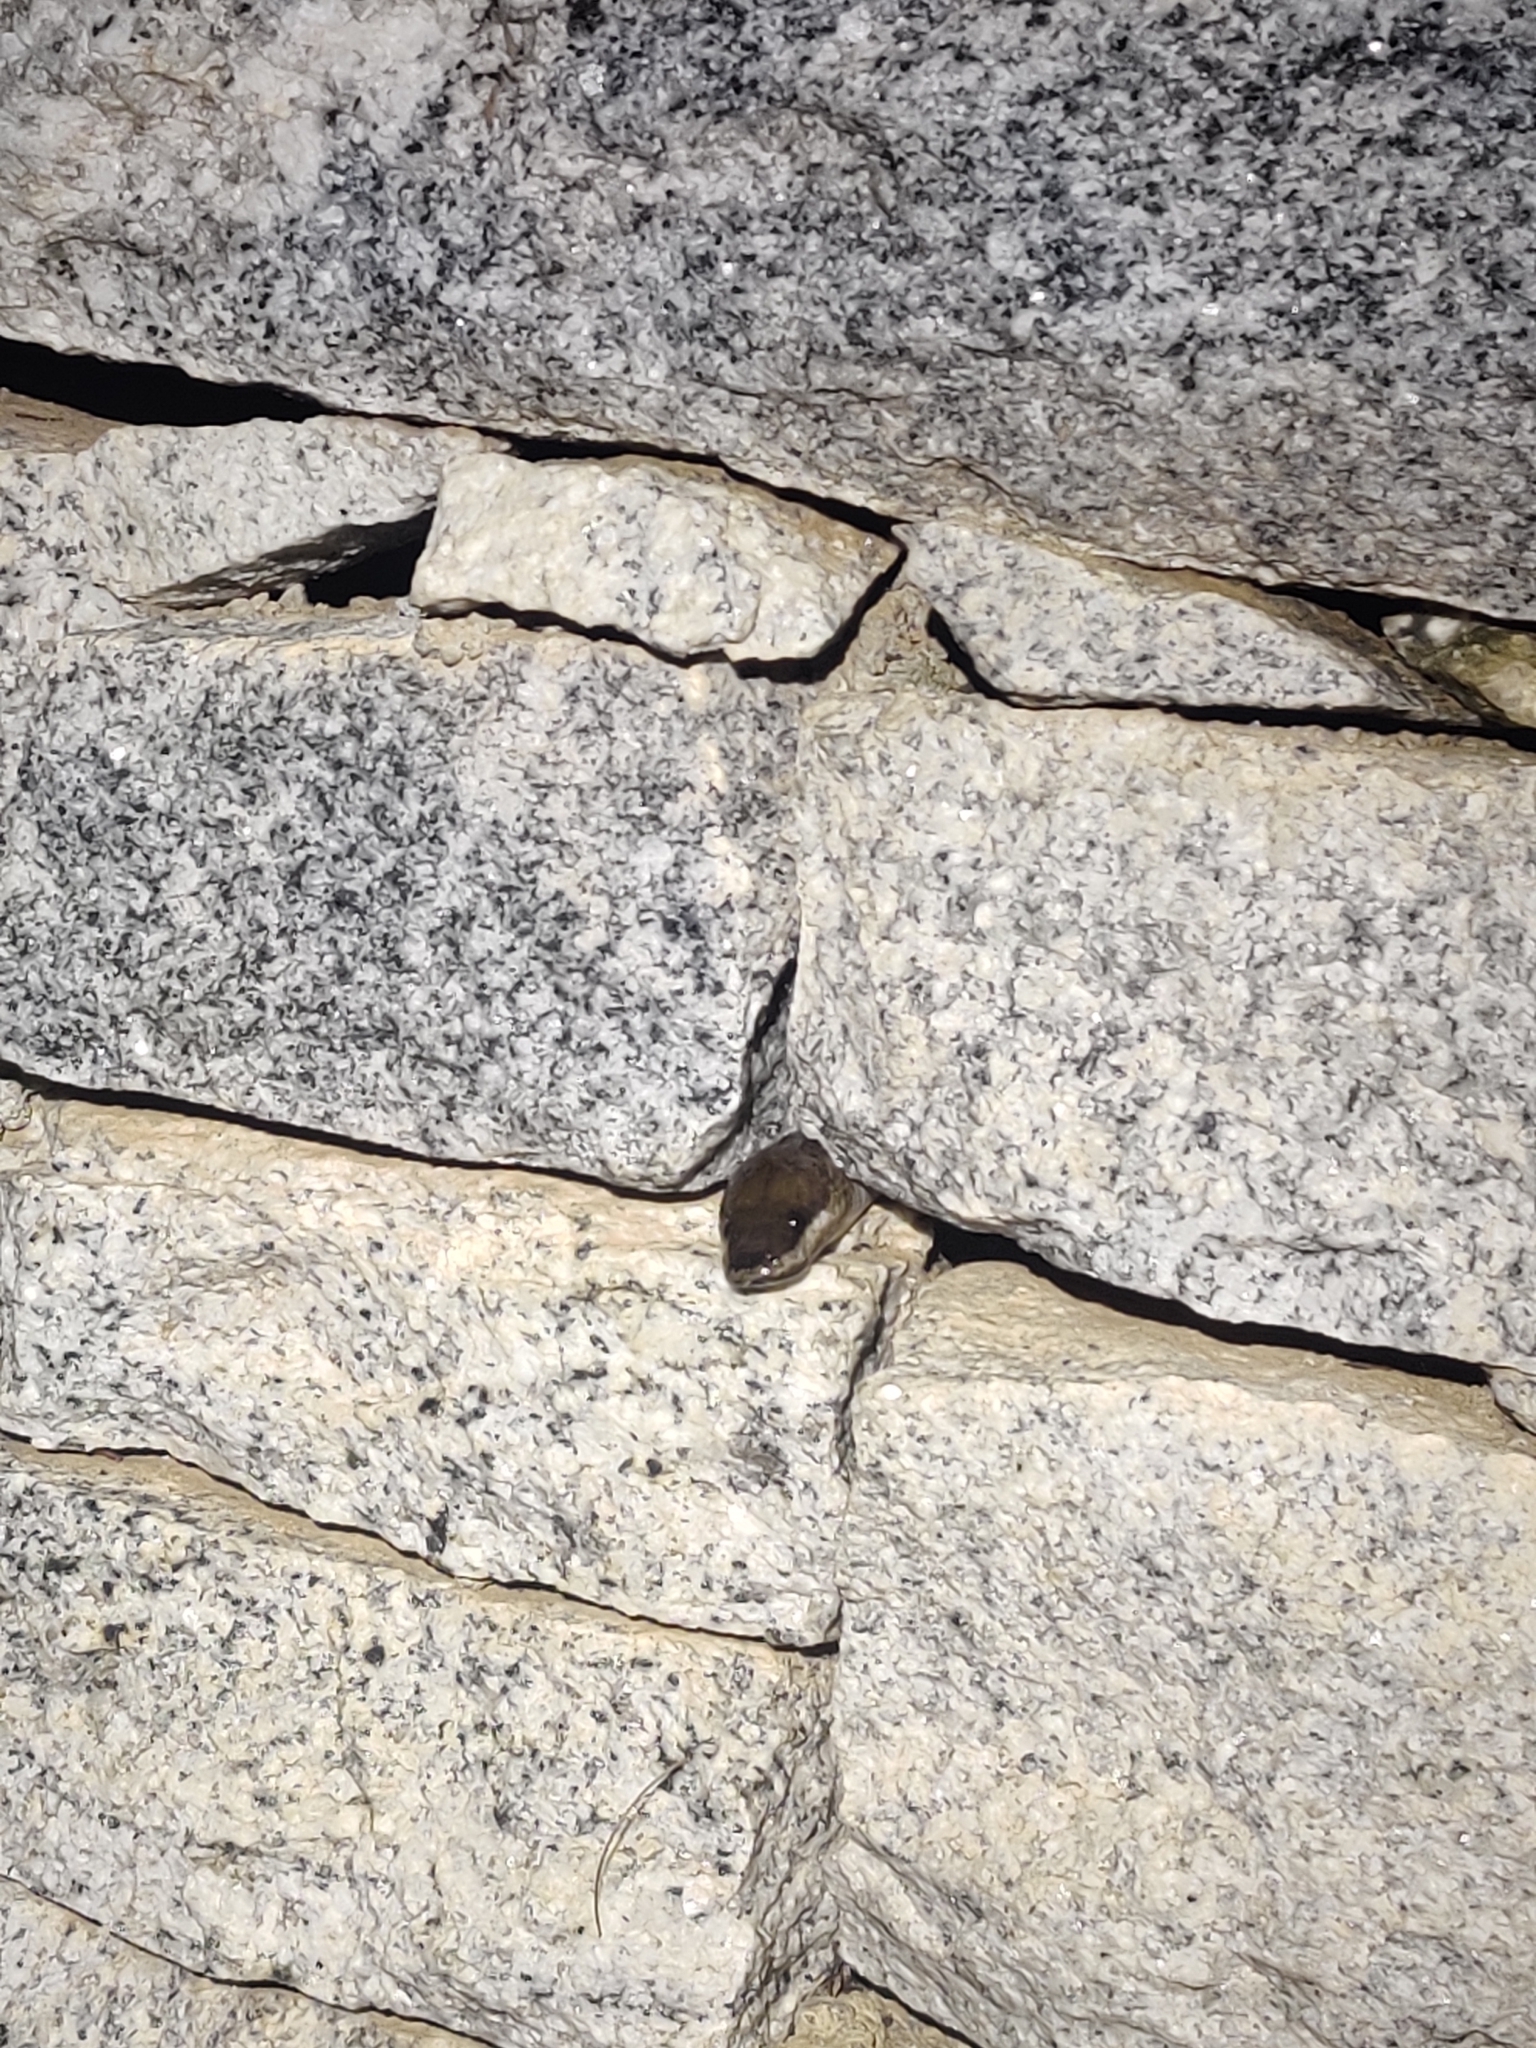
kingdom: Animalia
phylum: Chordata
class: Squamata
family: Colubridae
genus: Lycodon
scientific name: Lycodon aulicus
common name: Common wolf snake
